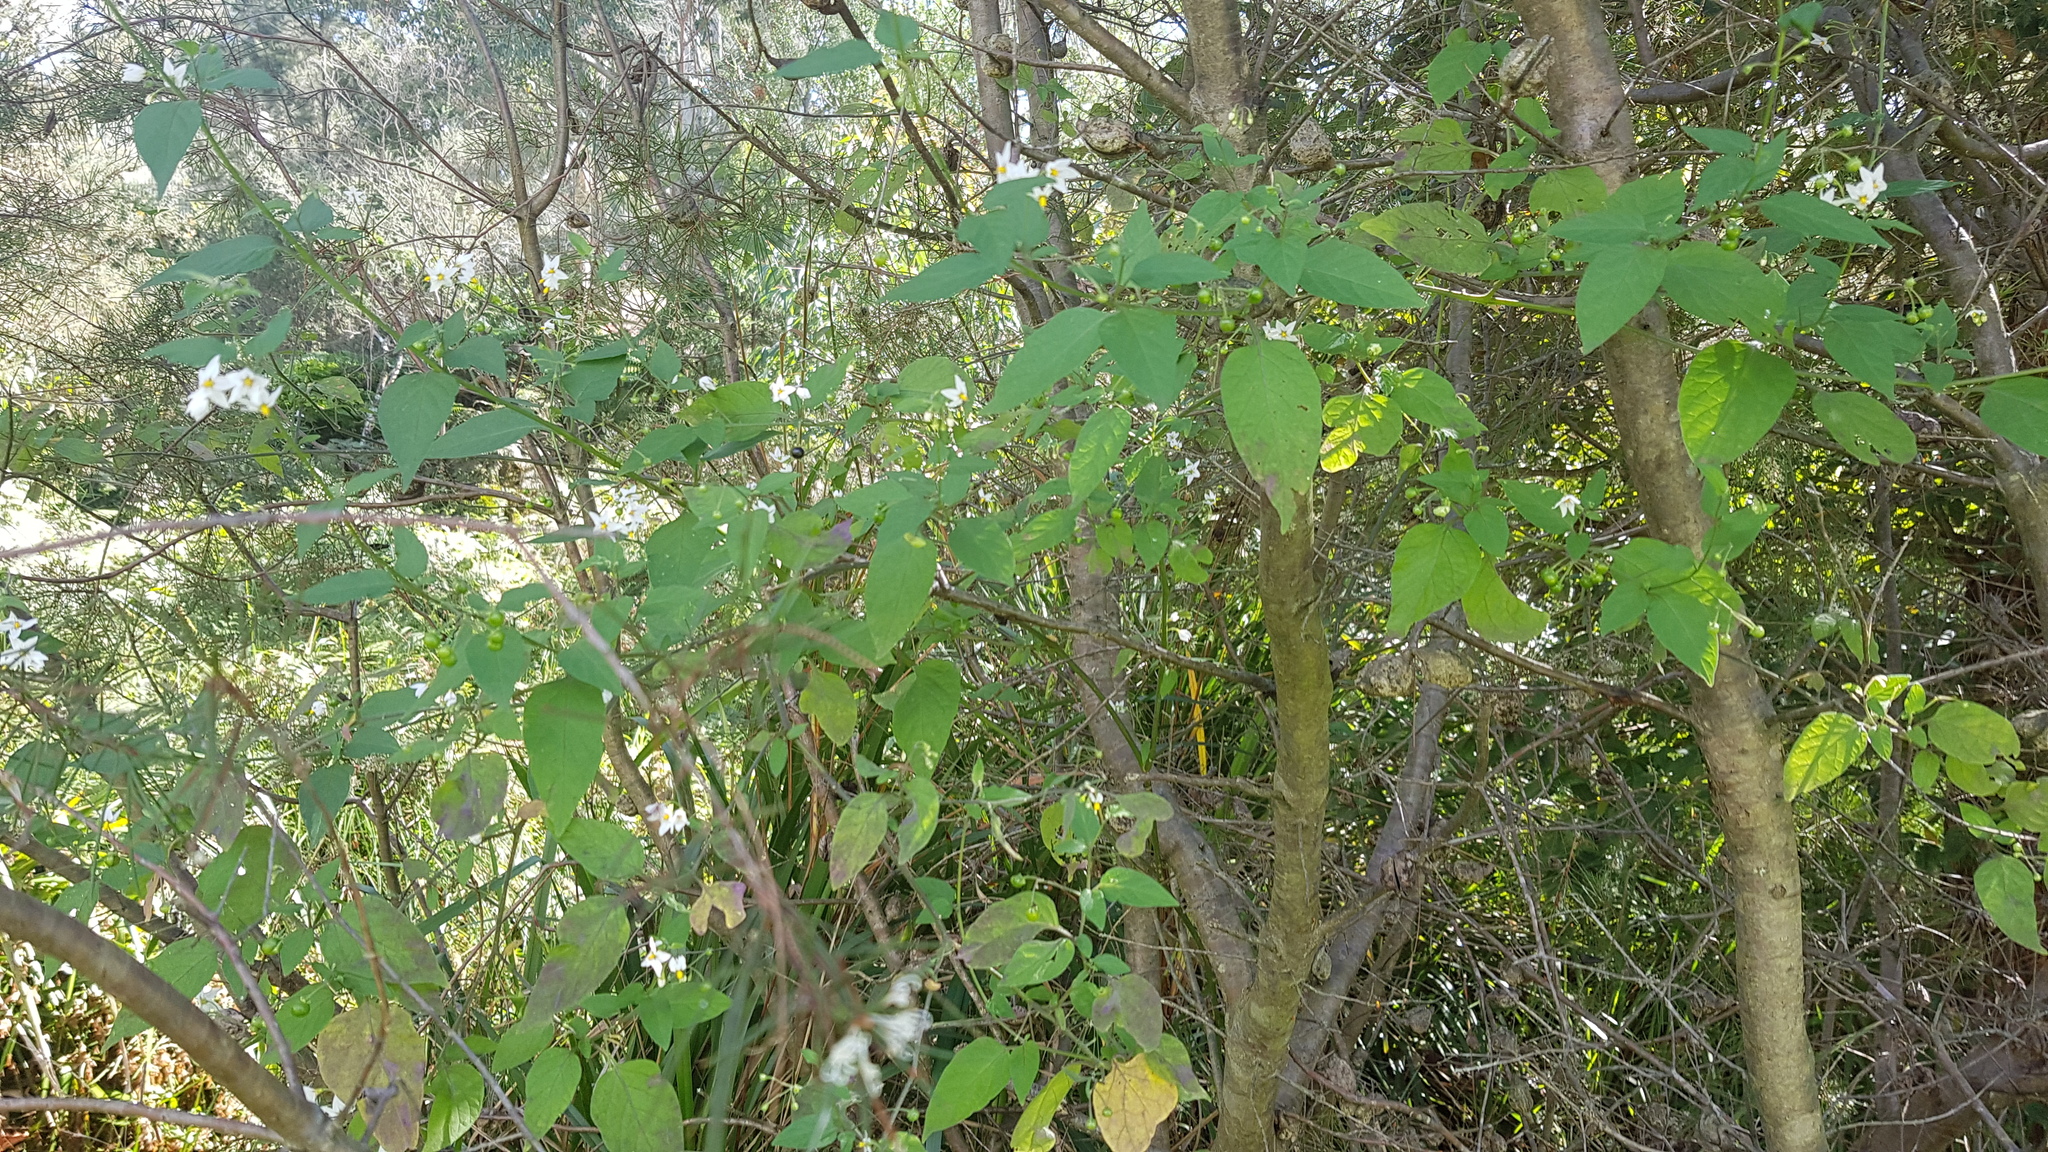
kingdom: Plantae
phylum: Tracheophyta
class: Magnoliopsida
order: Solanales
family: Solanaceae
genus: Solanum
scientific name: Solanum americanum
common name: American black nightshade
